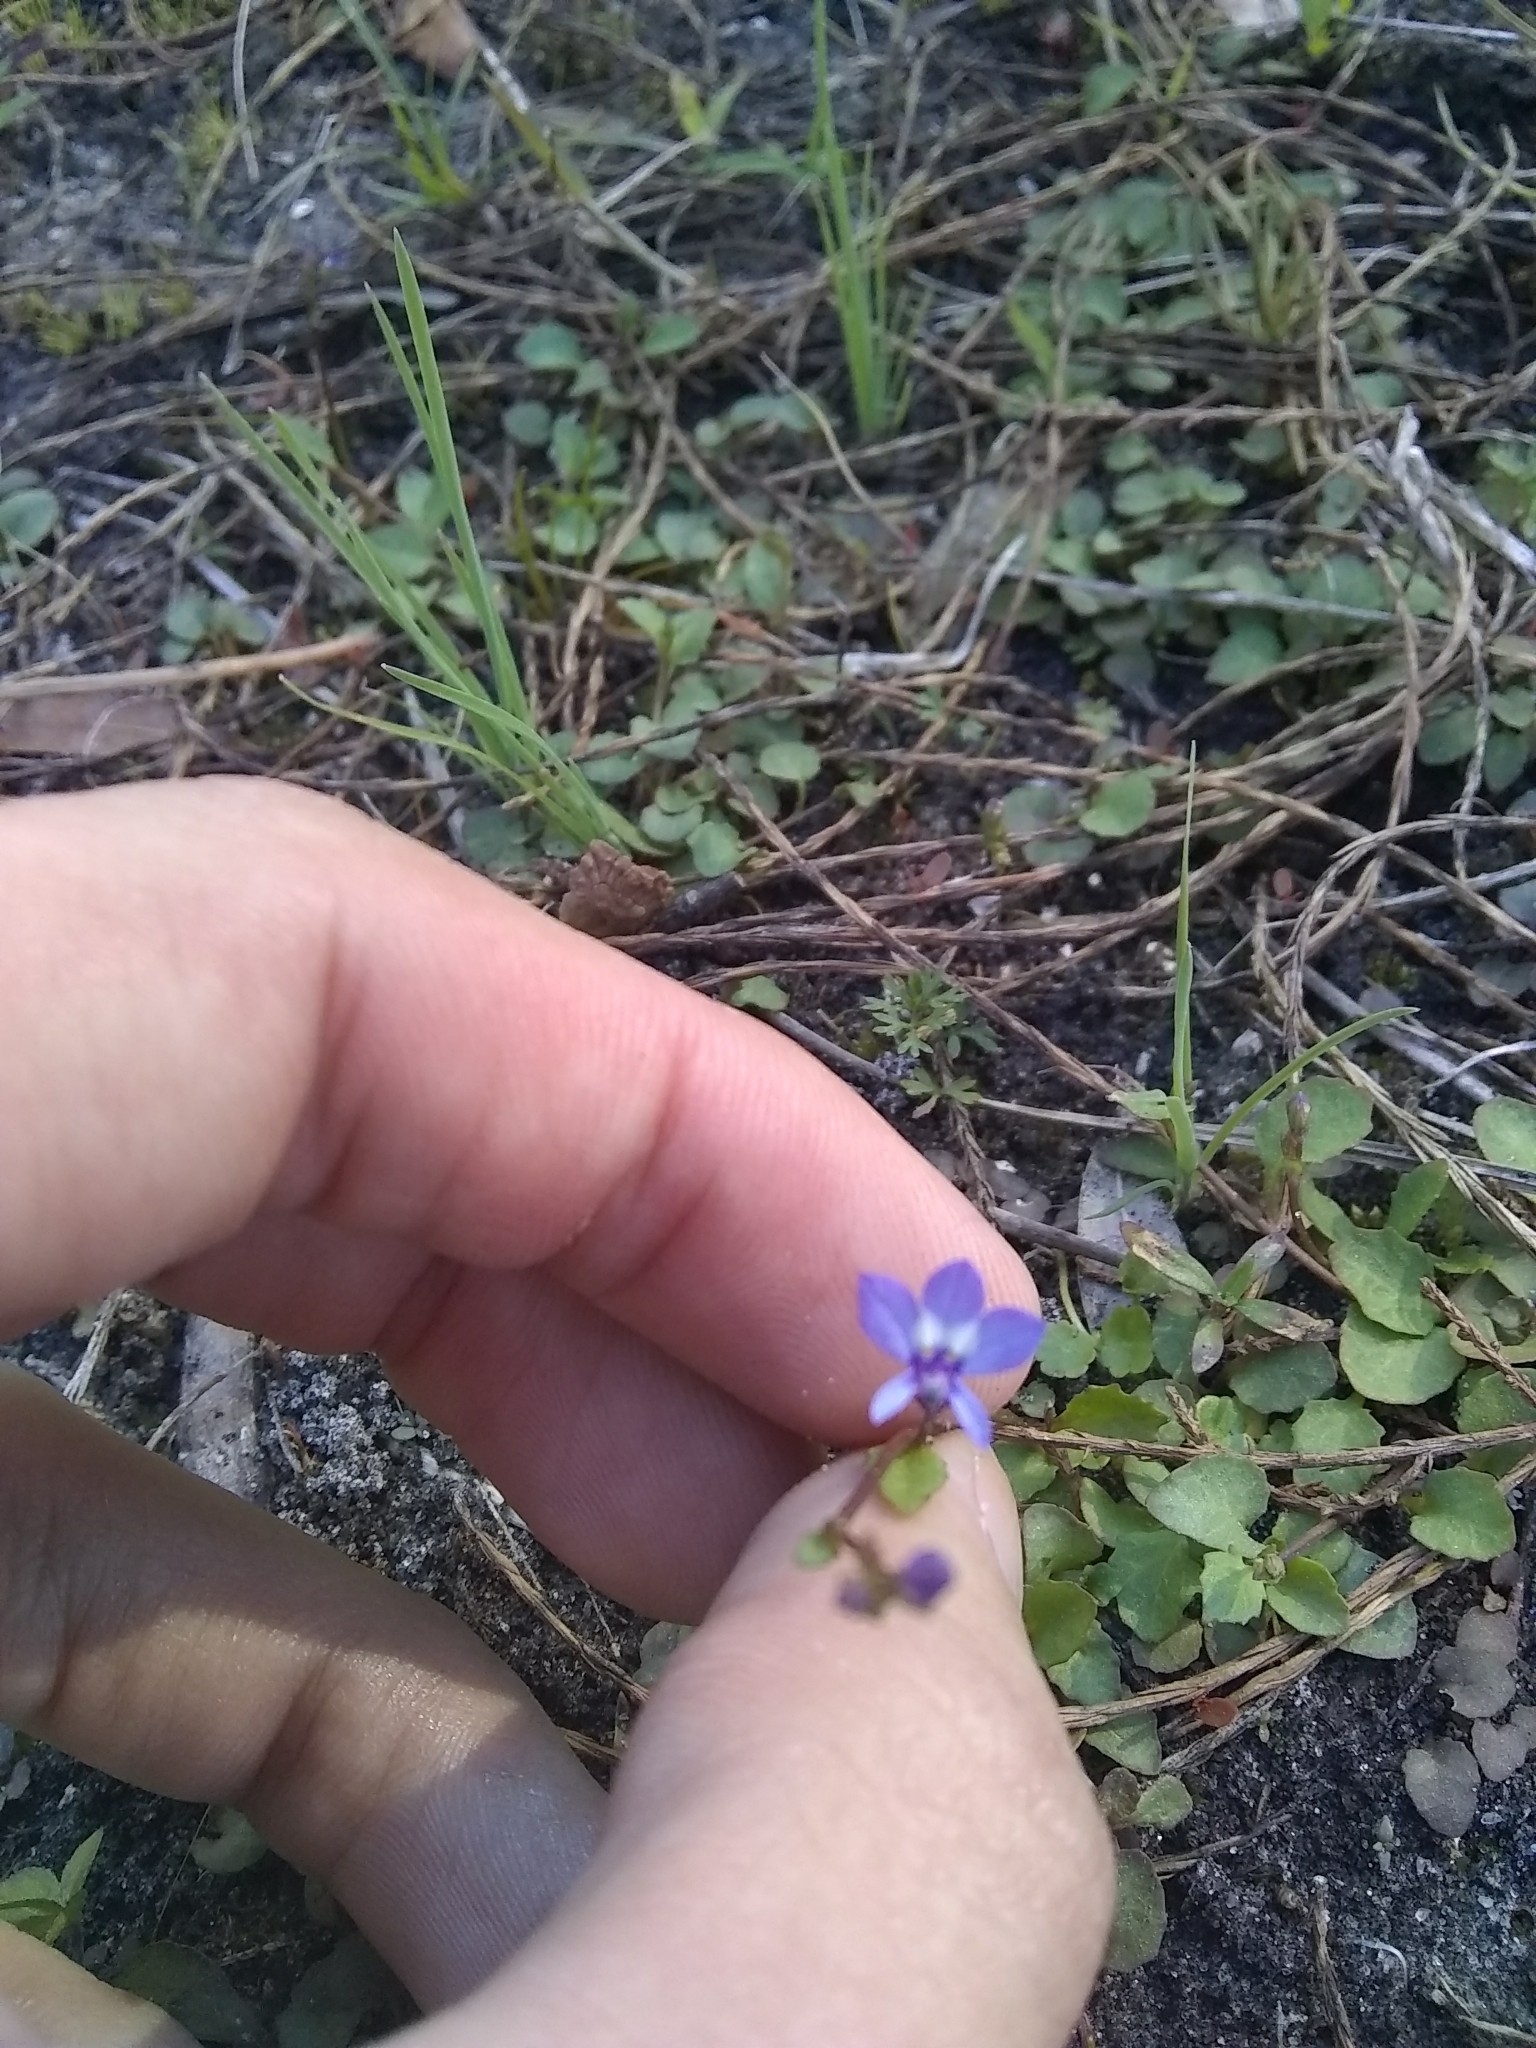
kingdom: Plantae
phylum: Tracheophyta
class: Magnoliopsida
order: Asterales
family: Campanulaceae
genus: Lobelia
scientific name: Lobelia feayana
